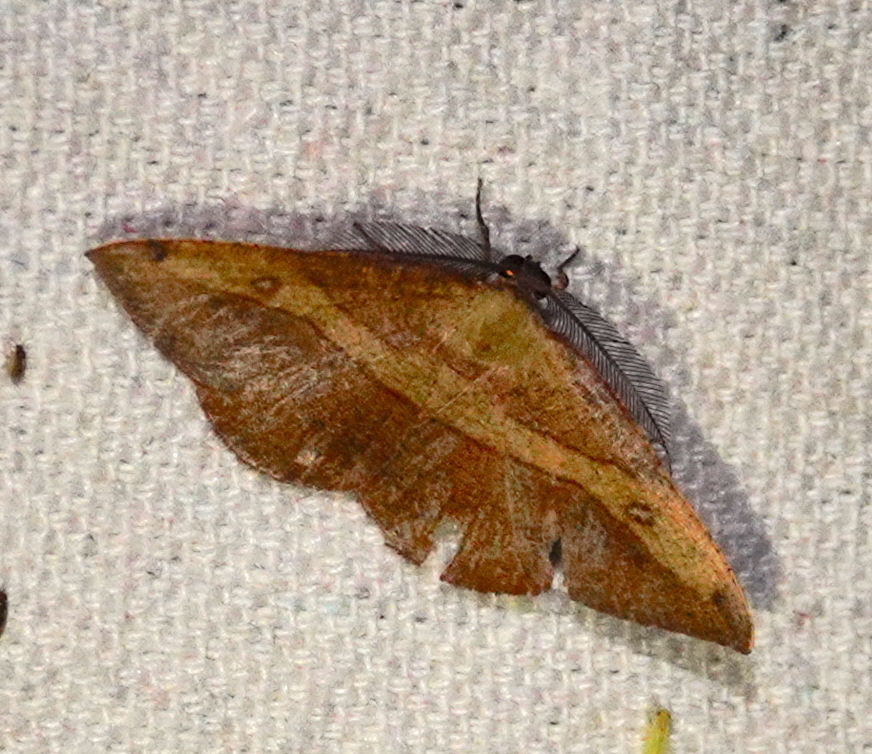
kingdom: Animalia
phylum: Arthropoda
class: Insecta
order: Lepidoptera
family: Geometridae
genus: Hypochrosis
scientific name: Hypochrosis hyadaria
